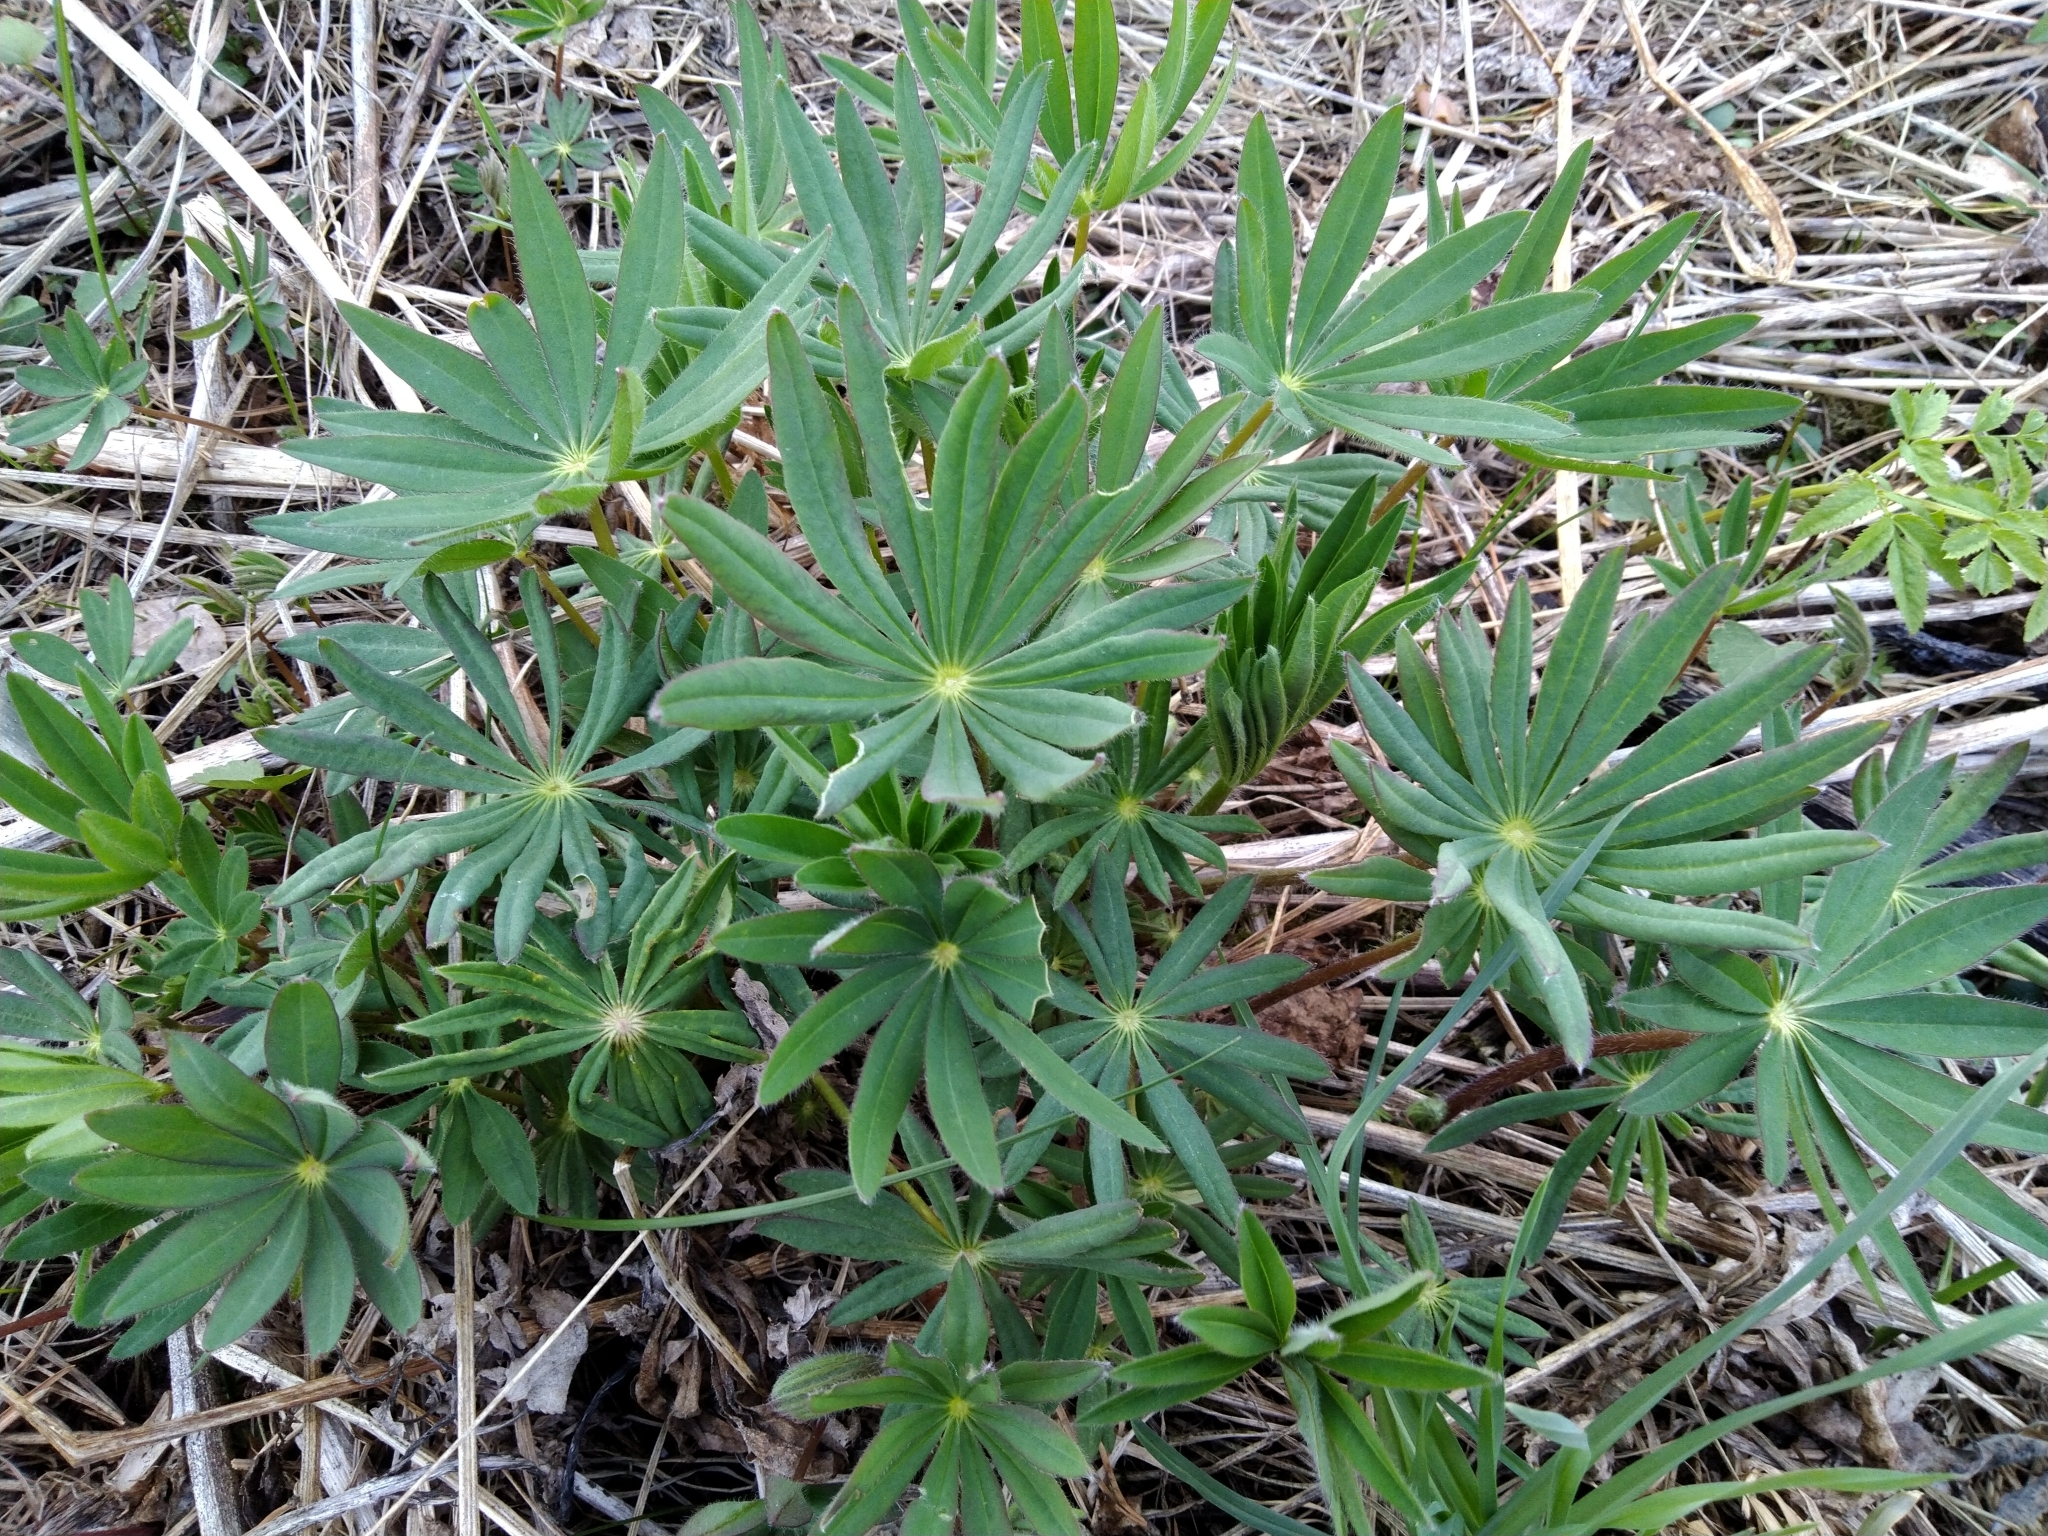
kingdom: Plantae
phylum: Tracheophyta
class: Magnoliopsida
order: Fabales
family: Fabaceae
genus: Lupinus
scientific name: Lupinus polyphyllus
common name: Garden lupin
